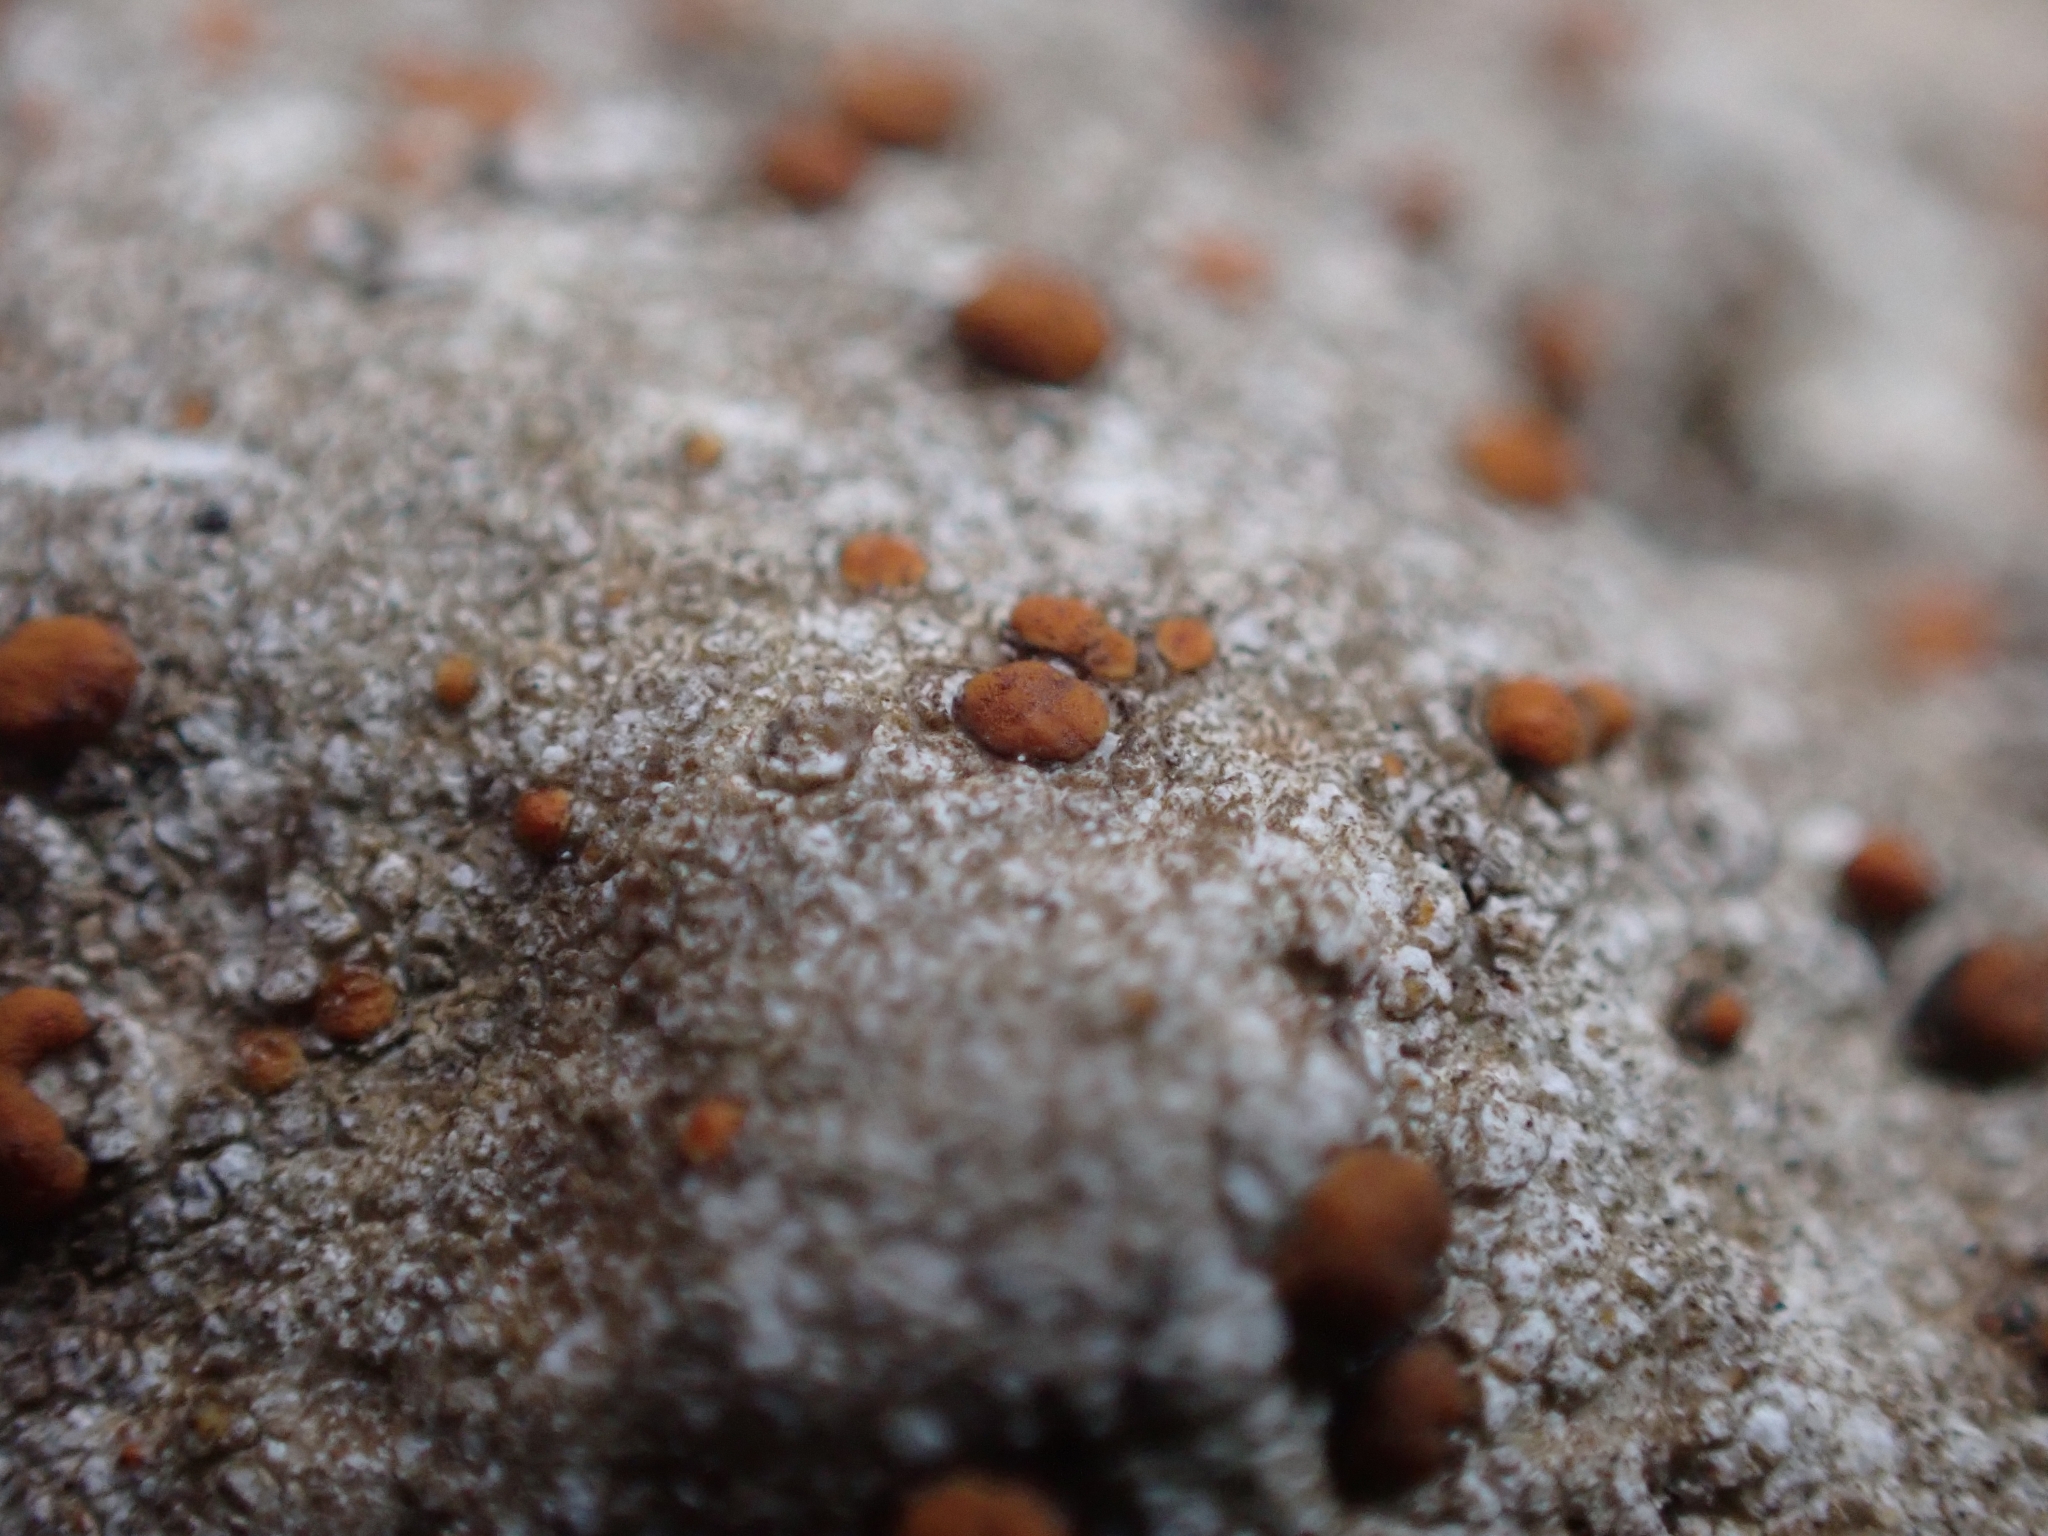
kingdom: Fungi
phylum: Ascomycota
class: Lecanoromycetes
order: Lecanorales
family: Psoraceae
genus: Protoblastenia
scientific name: Protoblastenia rupestris
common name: Chewing gum lichen
